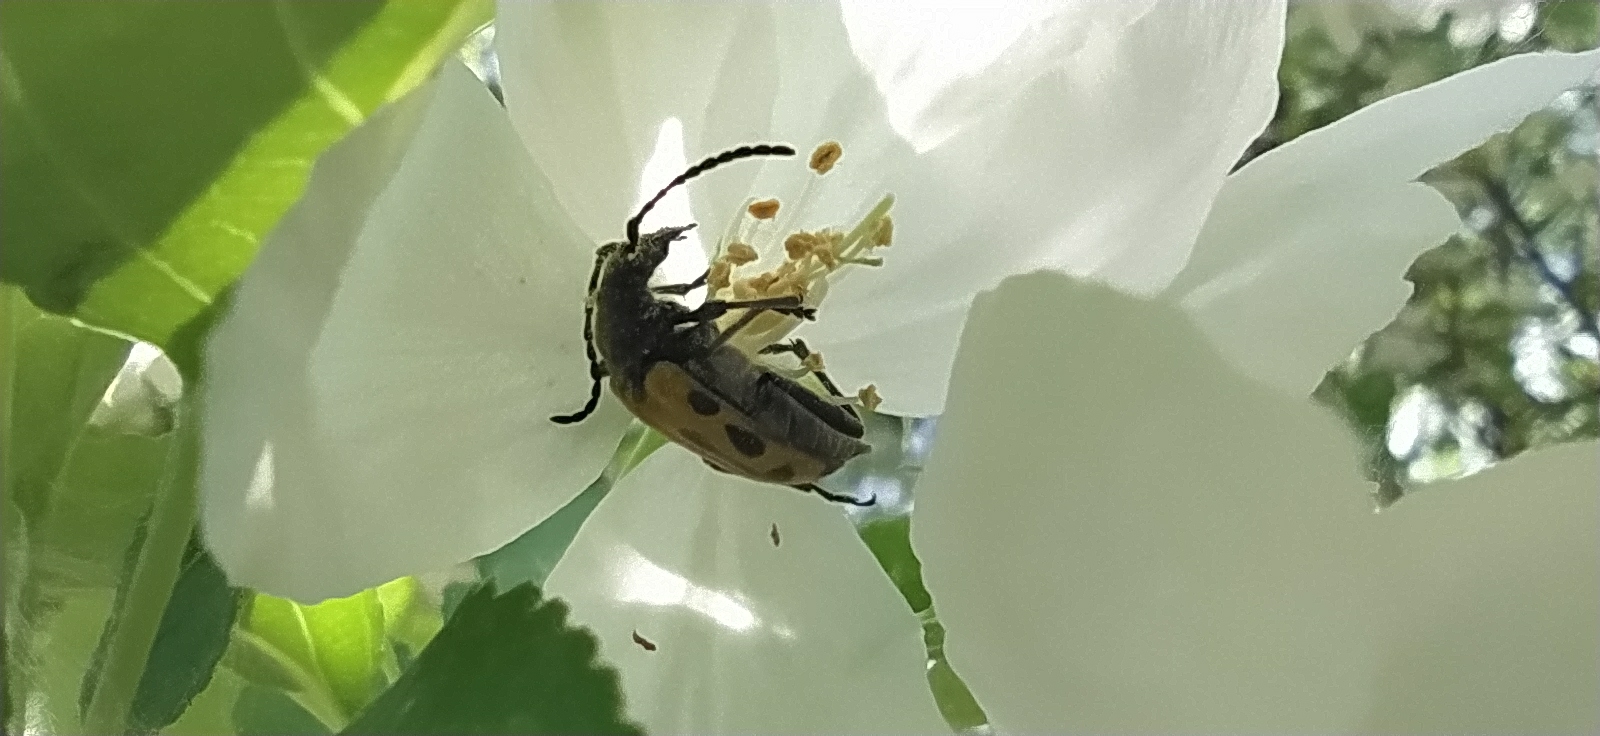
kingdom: Animalia
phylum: Arthropoda
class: Insecta
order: Coleoptera
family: Cerambycidae
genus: Brachyta
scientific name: Brachyta interrogationis
